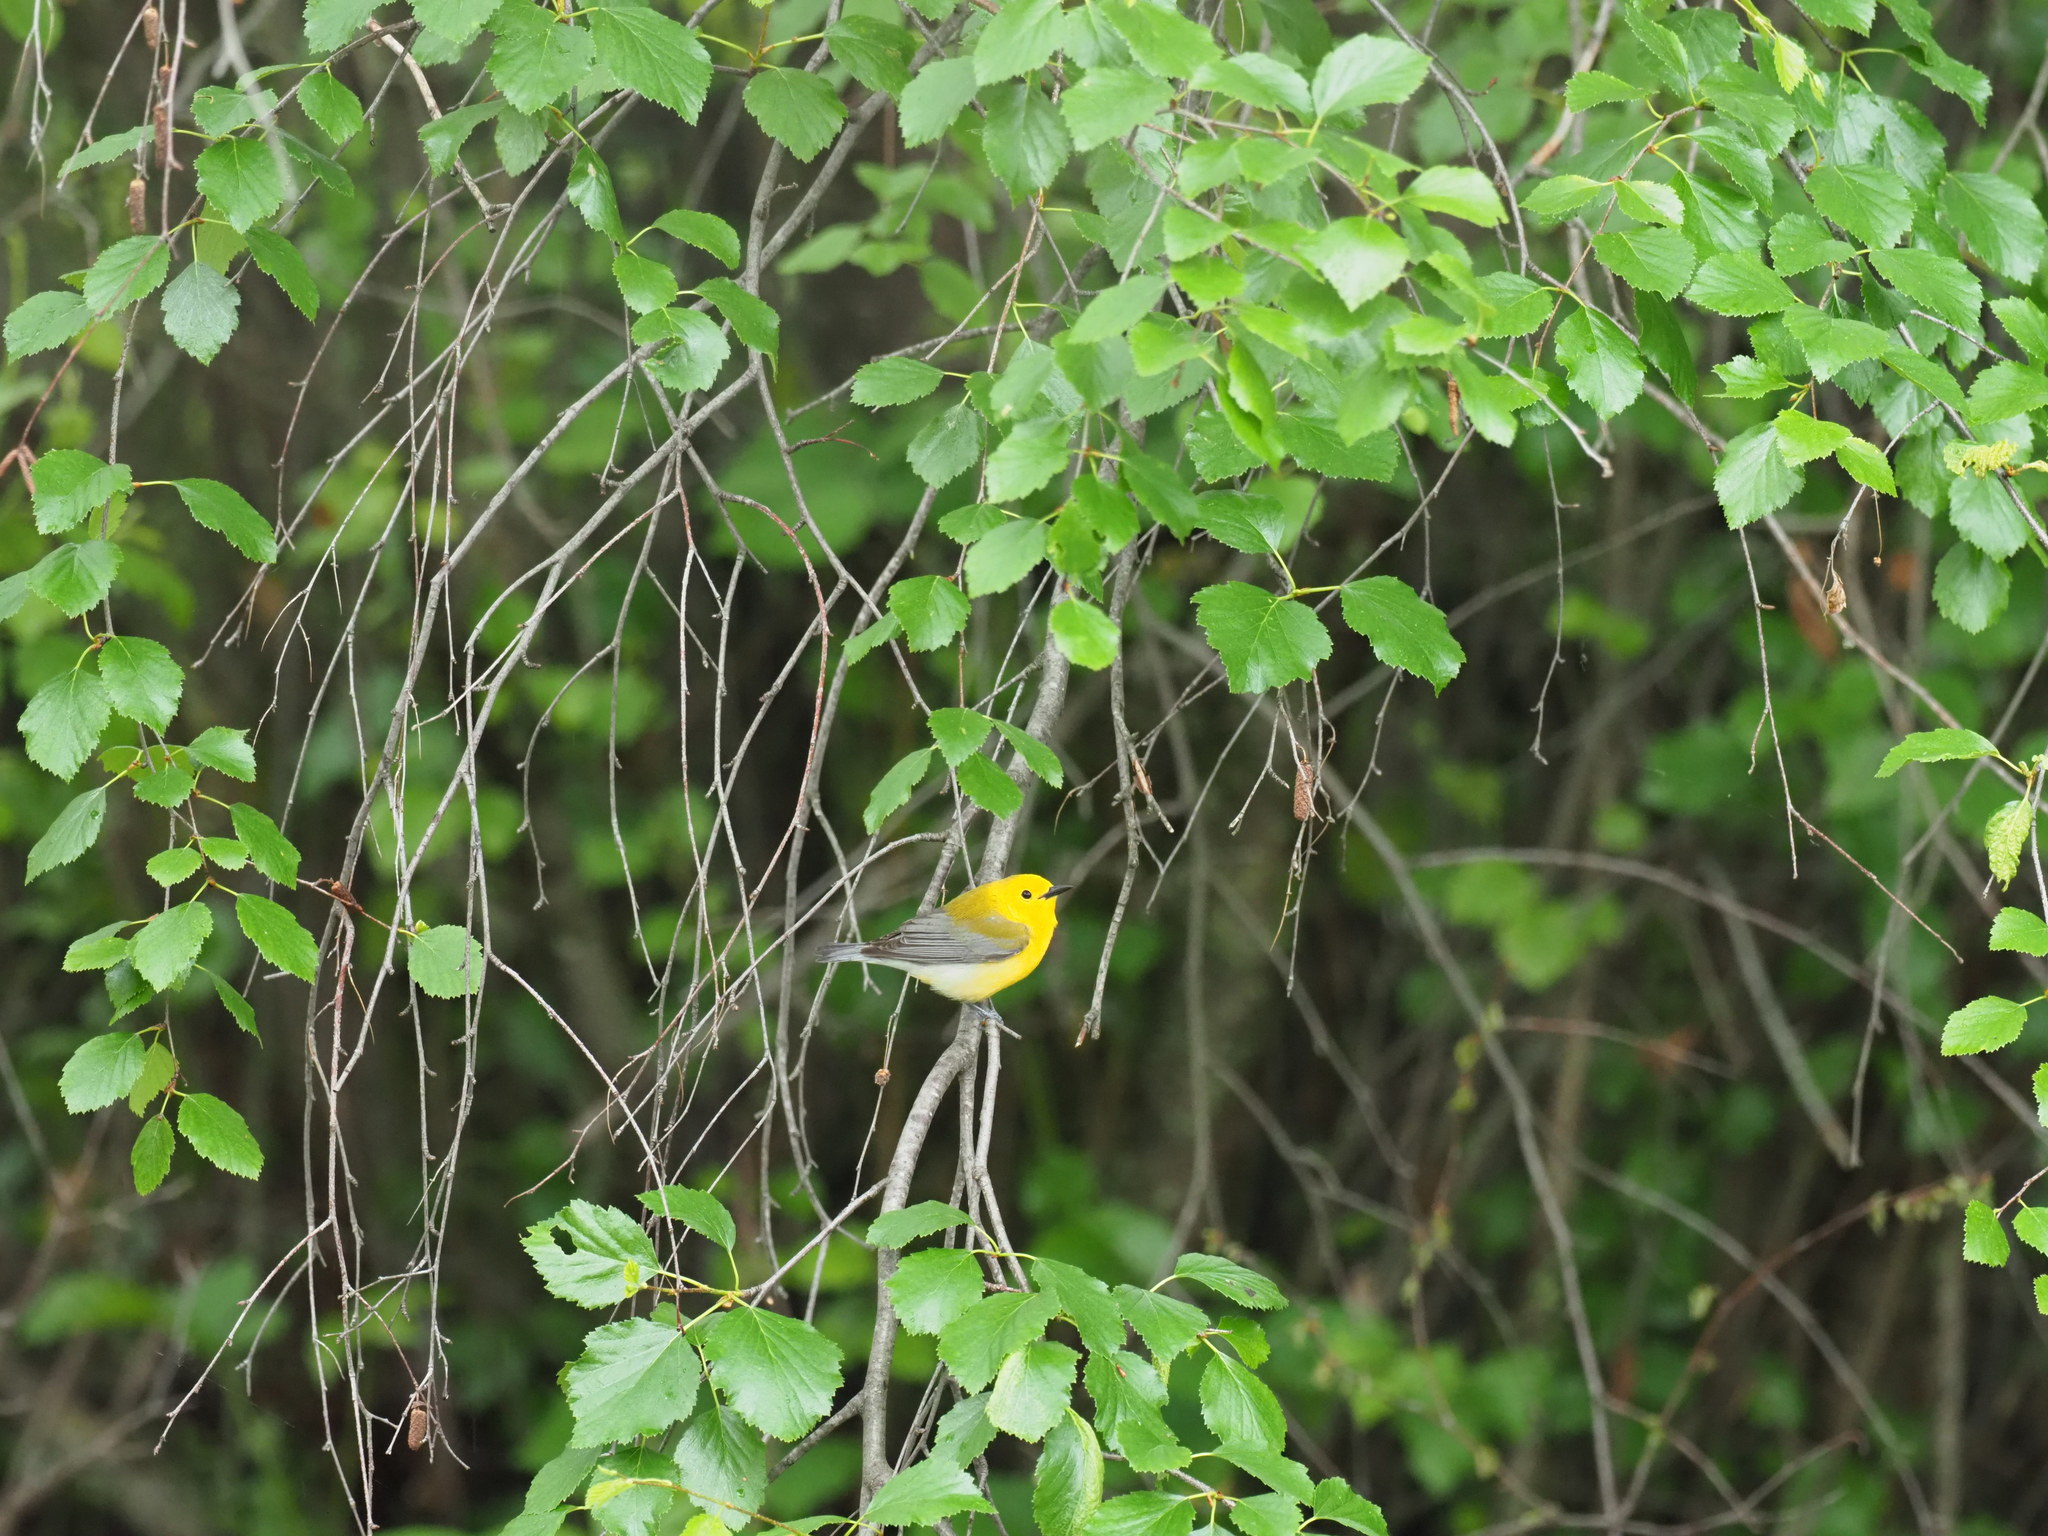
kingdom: Animalia
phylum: Chordata
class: Aves
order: Passeriformes
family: Parulidae
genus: Protonotaria
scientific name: Protonotaria citrea
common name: Prothonotary warbler
